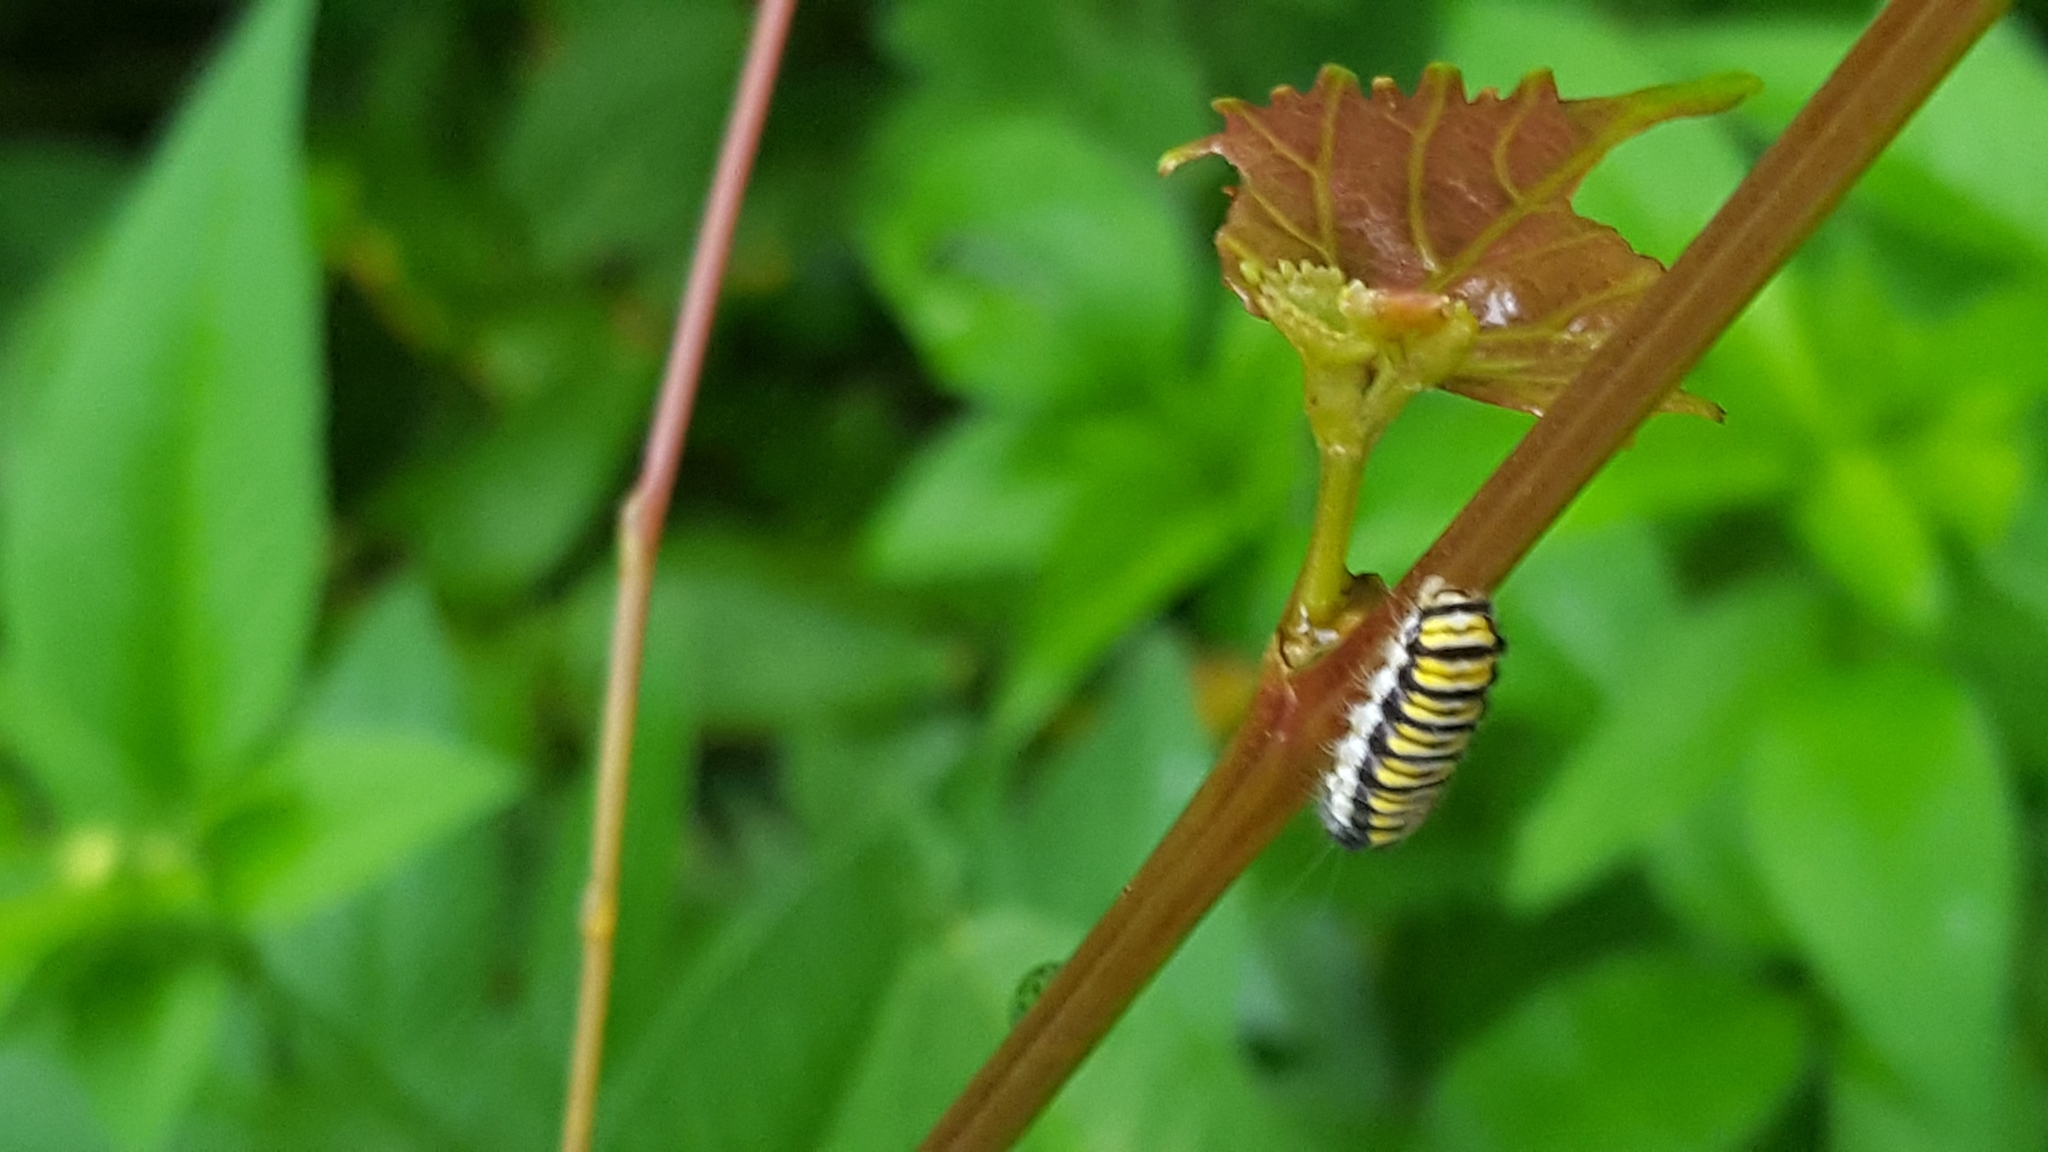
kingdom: Animalia
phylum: Arthropoda
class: Insecta
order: Lepidoptera
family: Zygaenidae
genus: Harrisina
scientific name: Harrisina americana
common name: Grapeleaf skeletonizer moth
